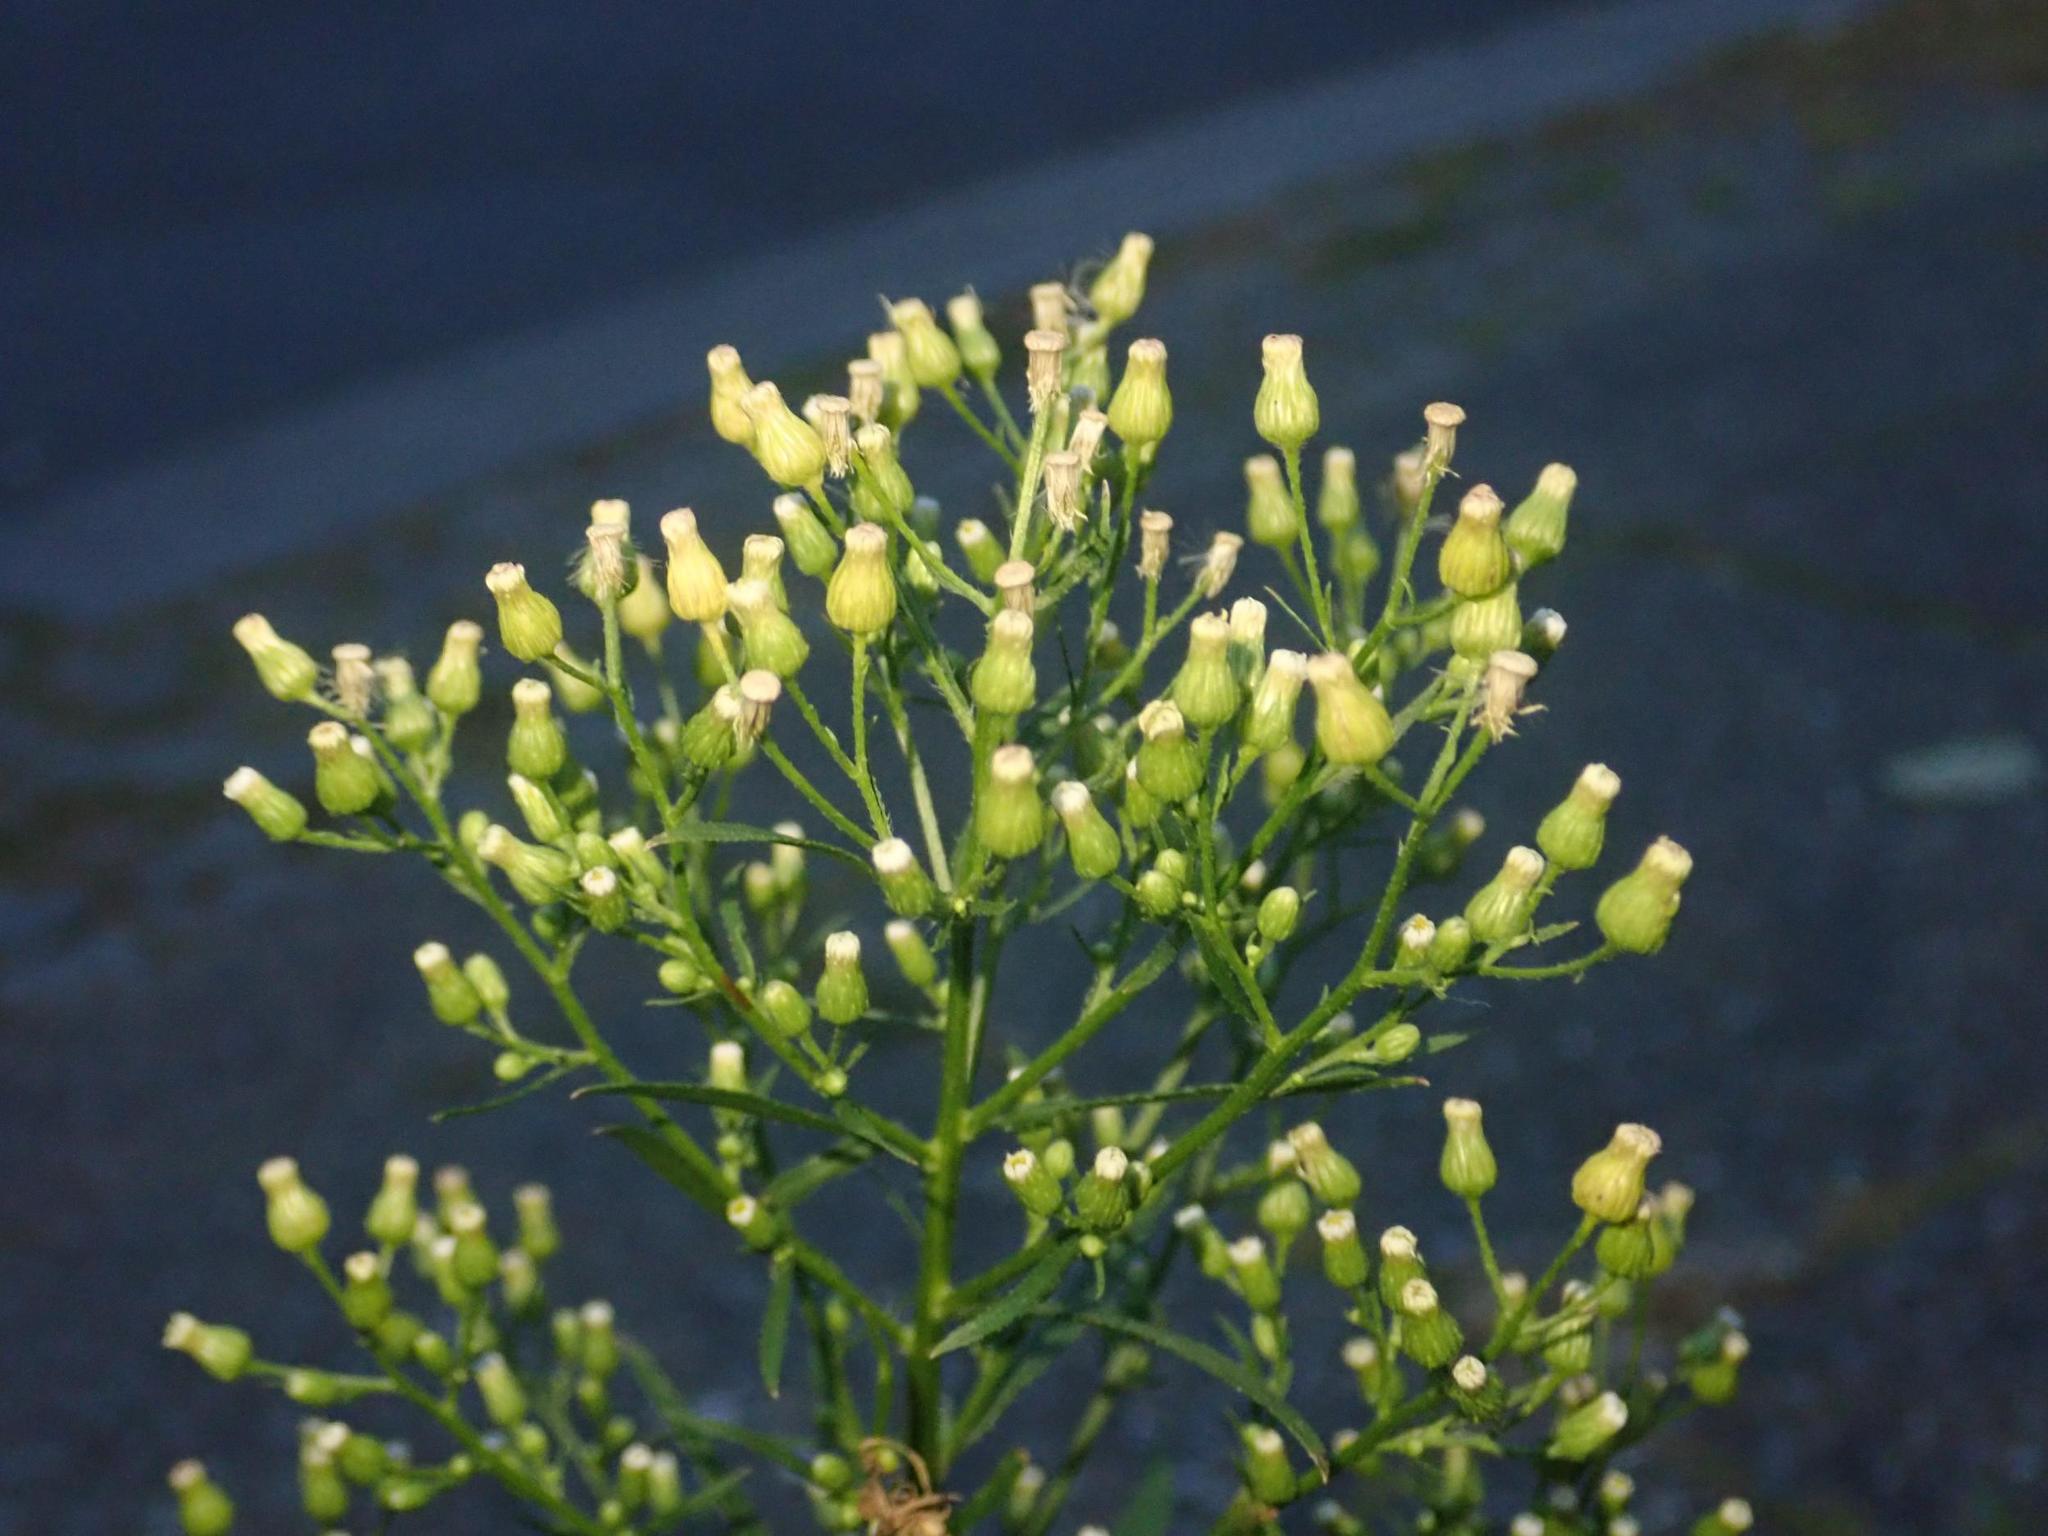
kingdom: Plantae
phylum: Tracheophyta
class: Magnoliopsida
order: Asterales
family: Asteraceae
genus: Erigeron
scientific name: Erigeron canadensis
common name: Canadian fleabane
